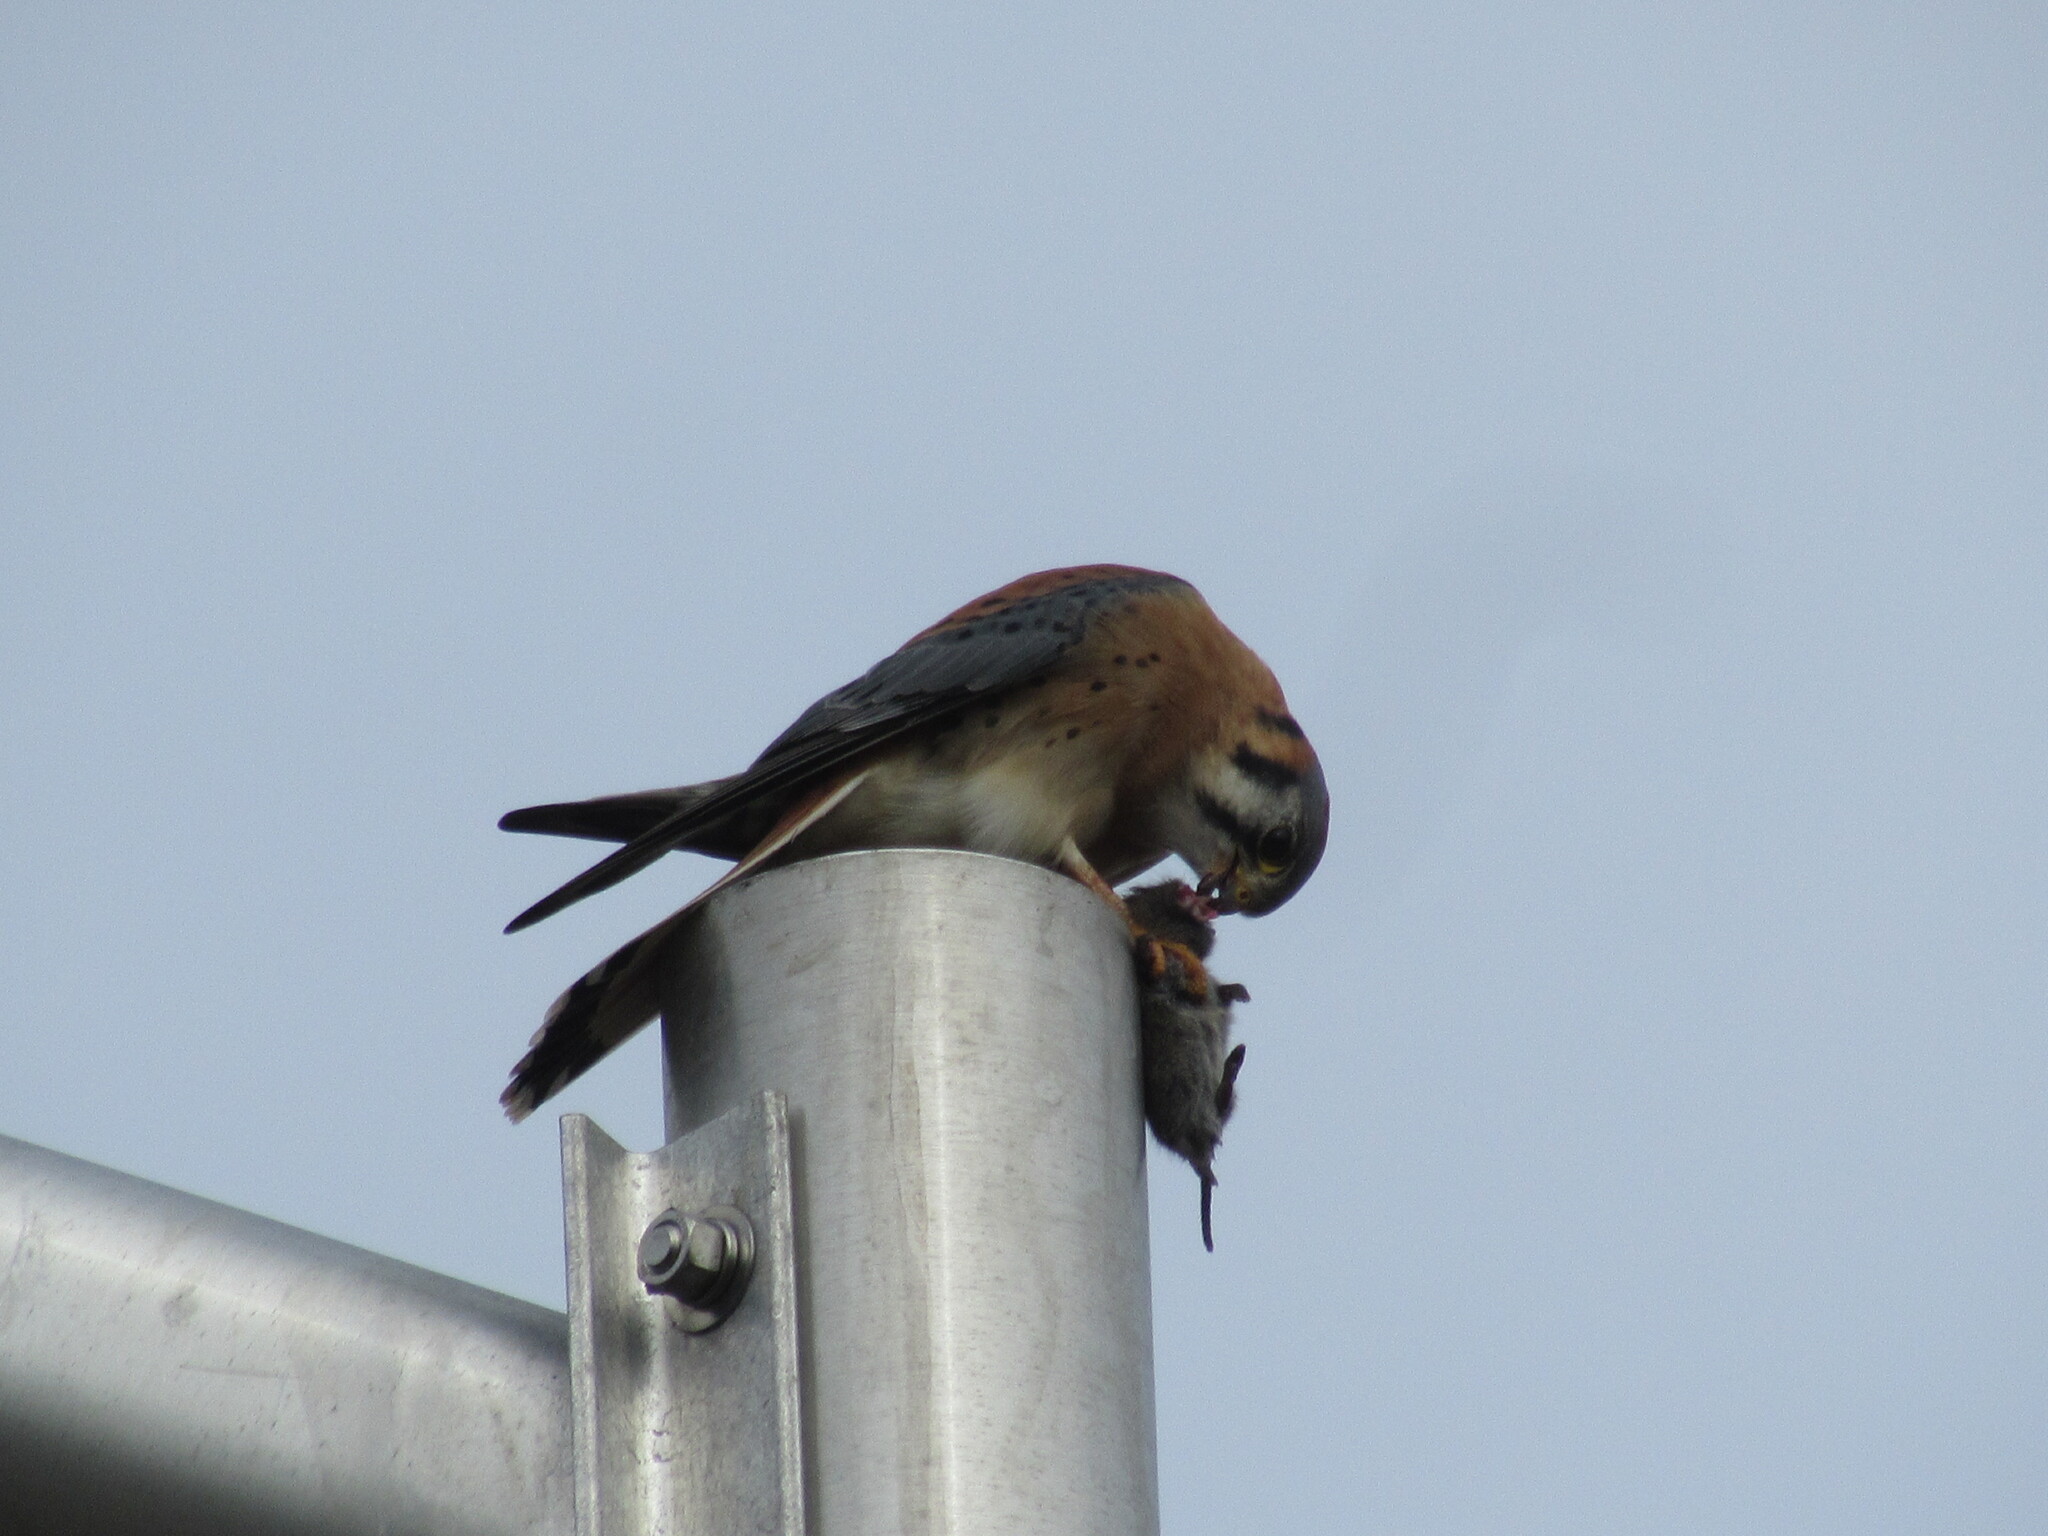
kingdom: Animalia
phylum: Chordata
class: Aves
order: Falconiformes
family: Falconidae
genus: Falco
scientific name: Falco sparverius
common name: American kestrel
